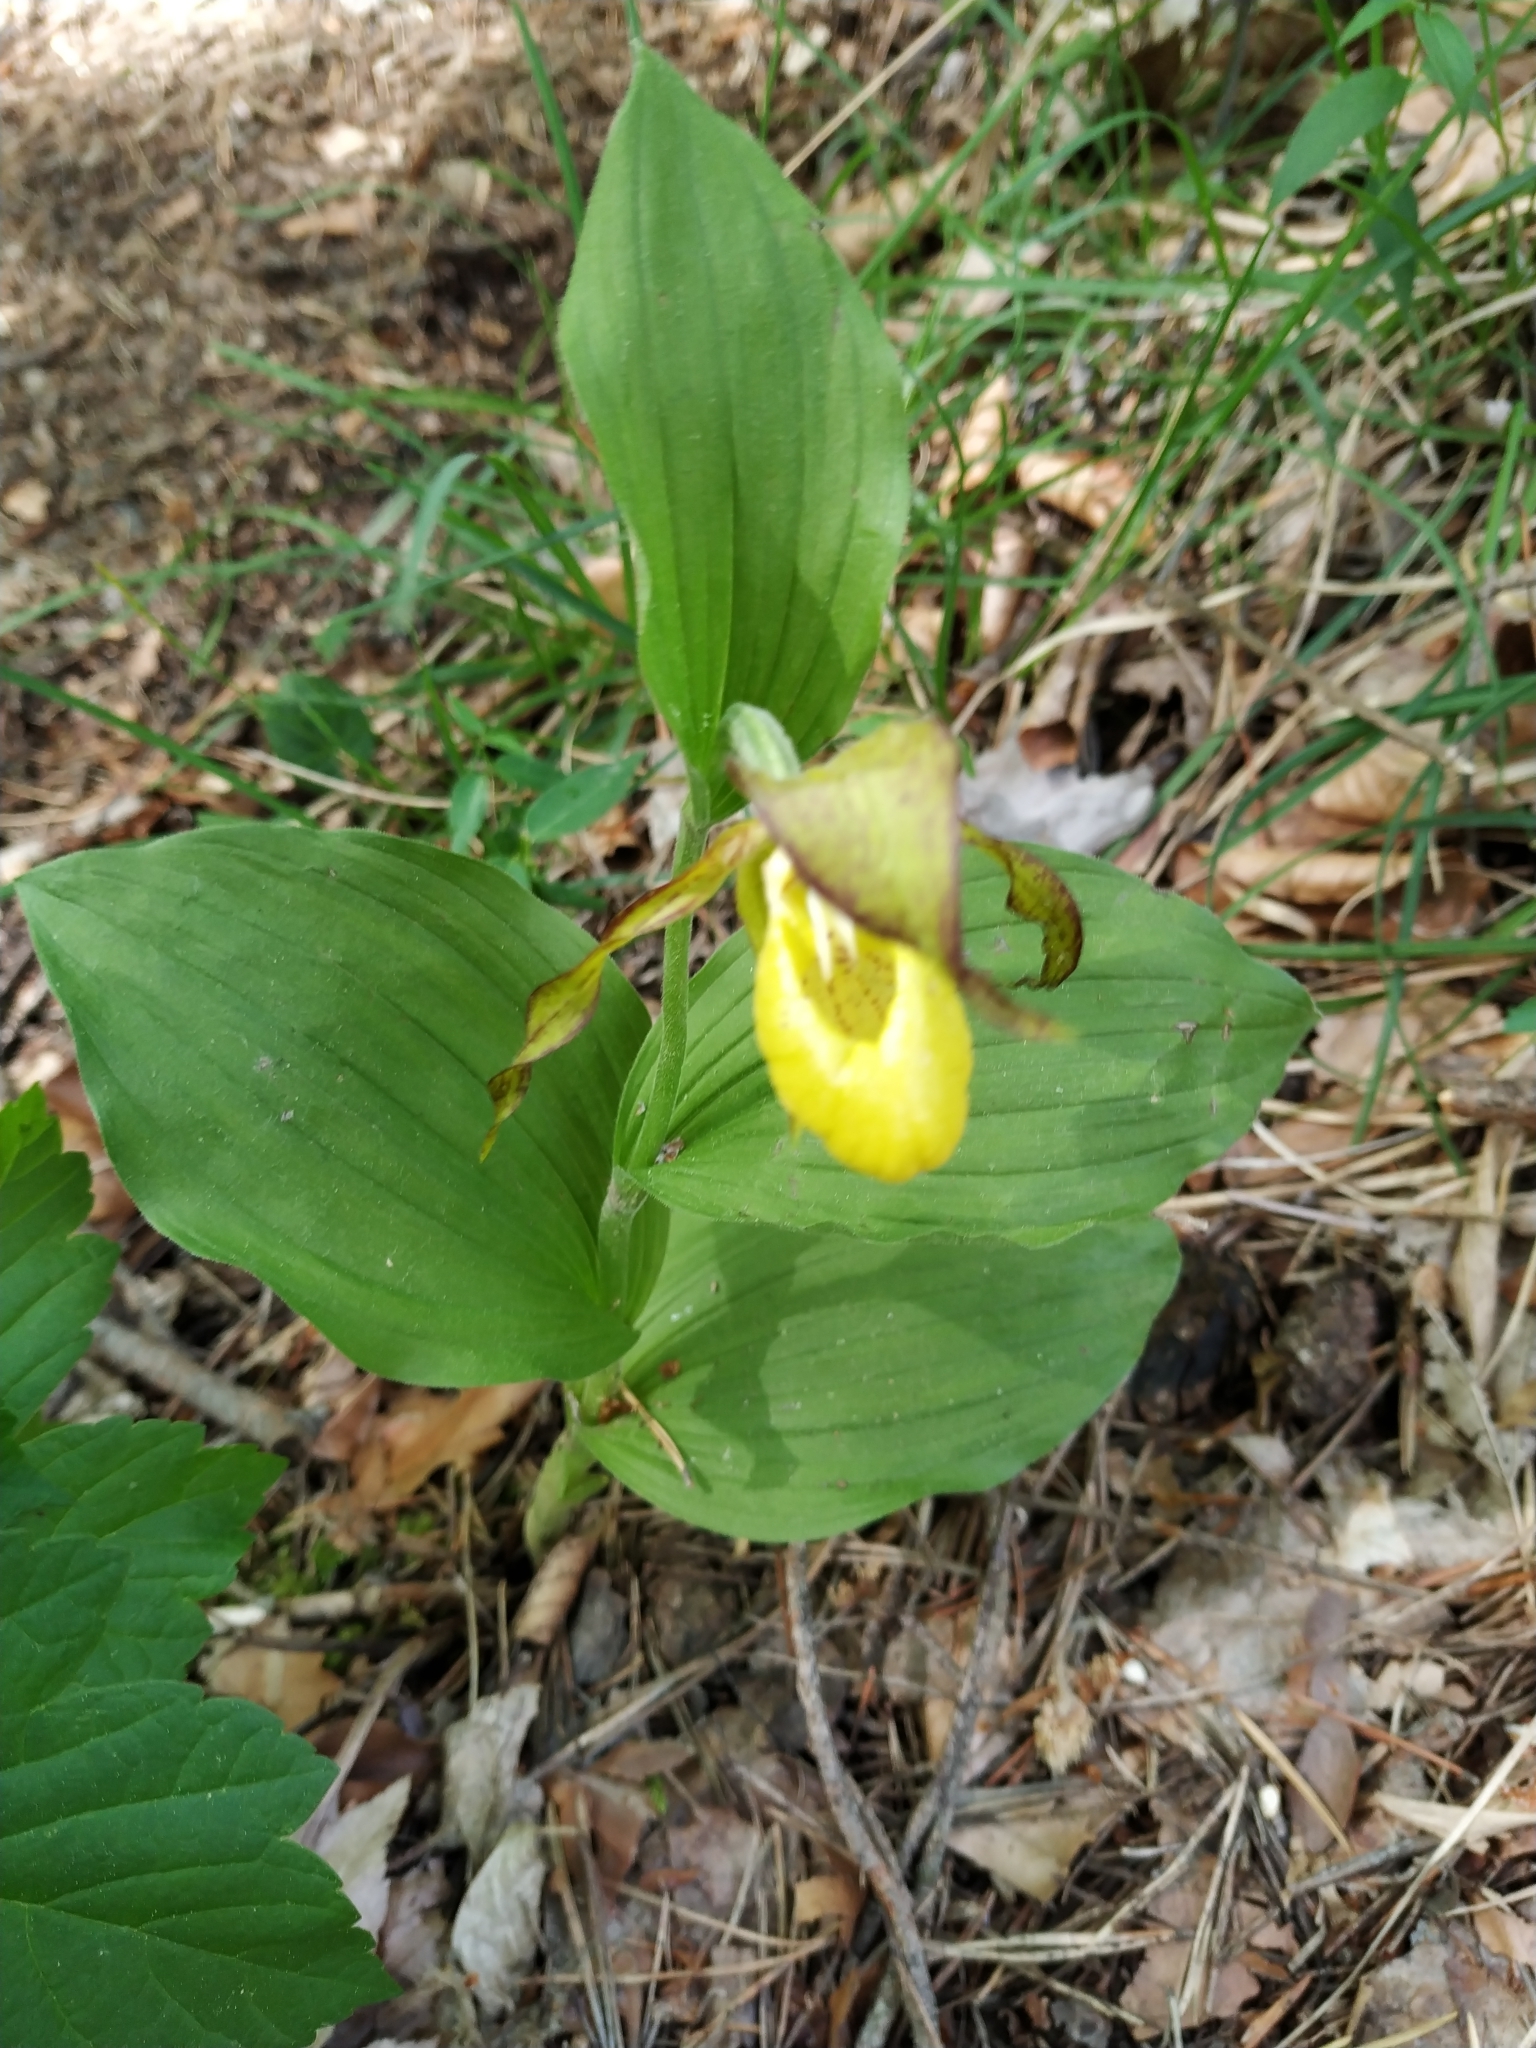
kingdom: Plantae
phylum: Tracheophyta
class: Liliopsida
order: Asparagales
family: Orchidaceae
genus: Cypripedium
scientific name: Cypripedium calceolus
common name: Lady's-slipper
